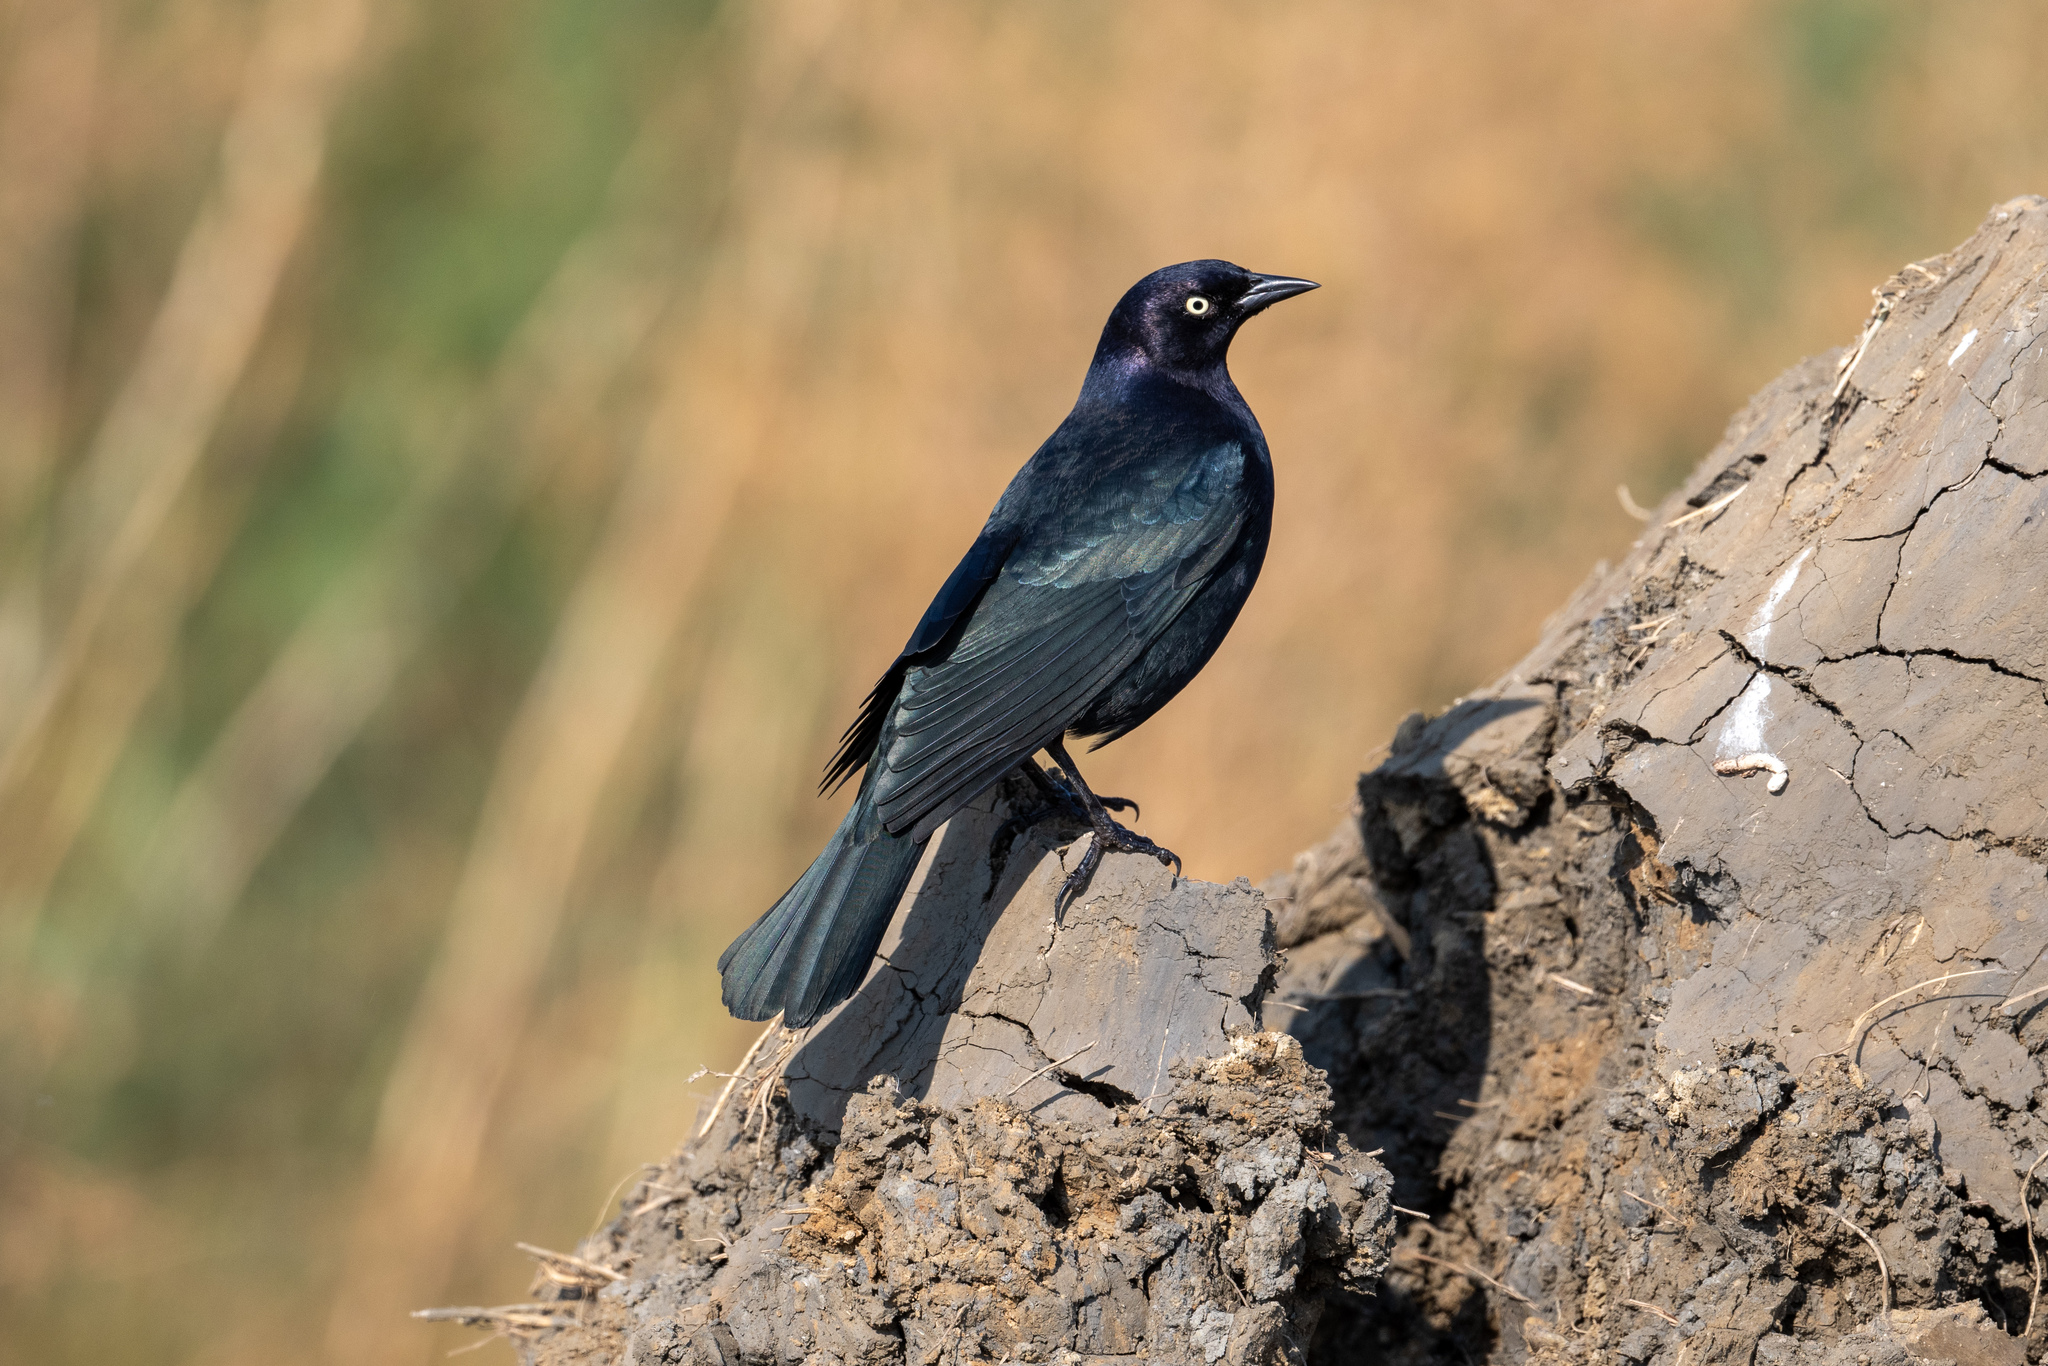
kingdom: Animalia
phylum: Chordata
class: Aves
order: Passeriformes
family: Icteridae
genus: Euphagus
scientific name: Euphagus cyanocephalus
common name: Brewer's blackbird
